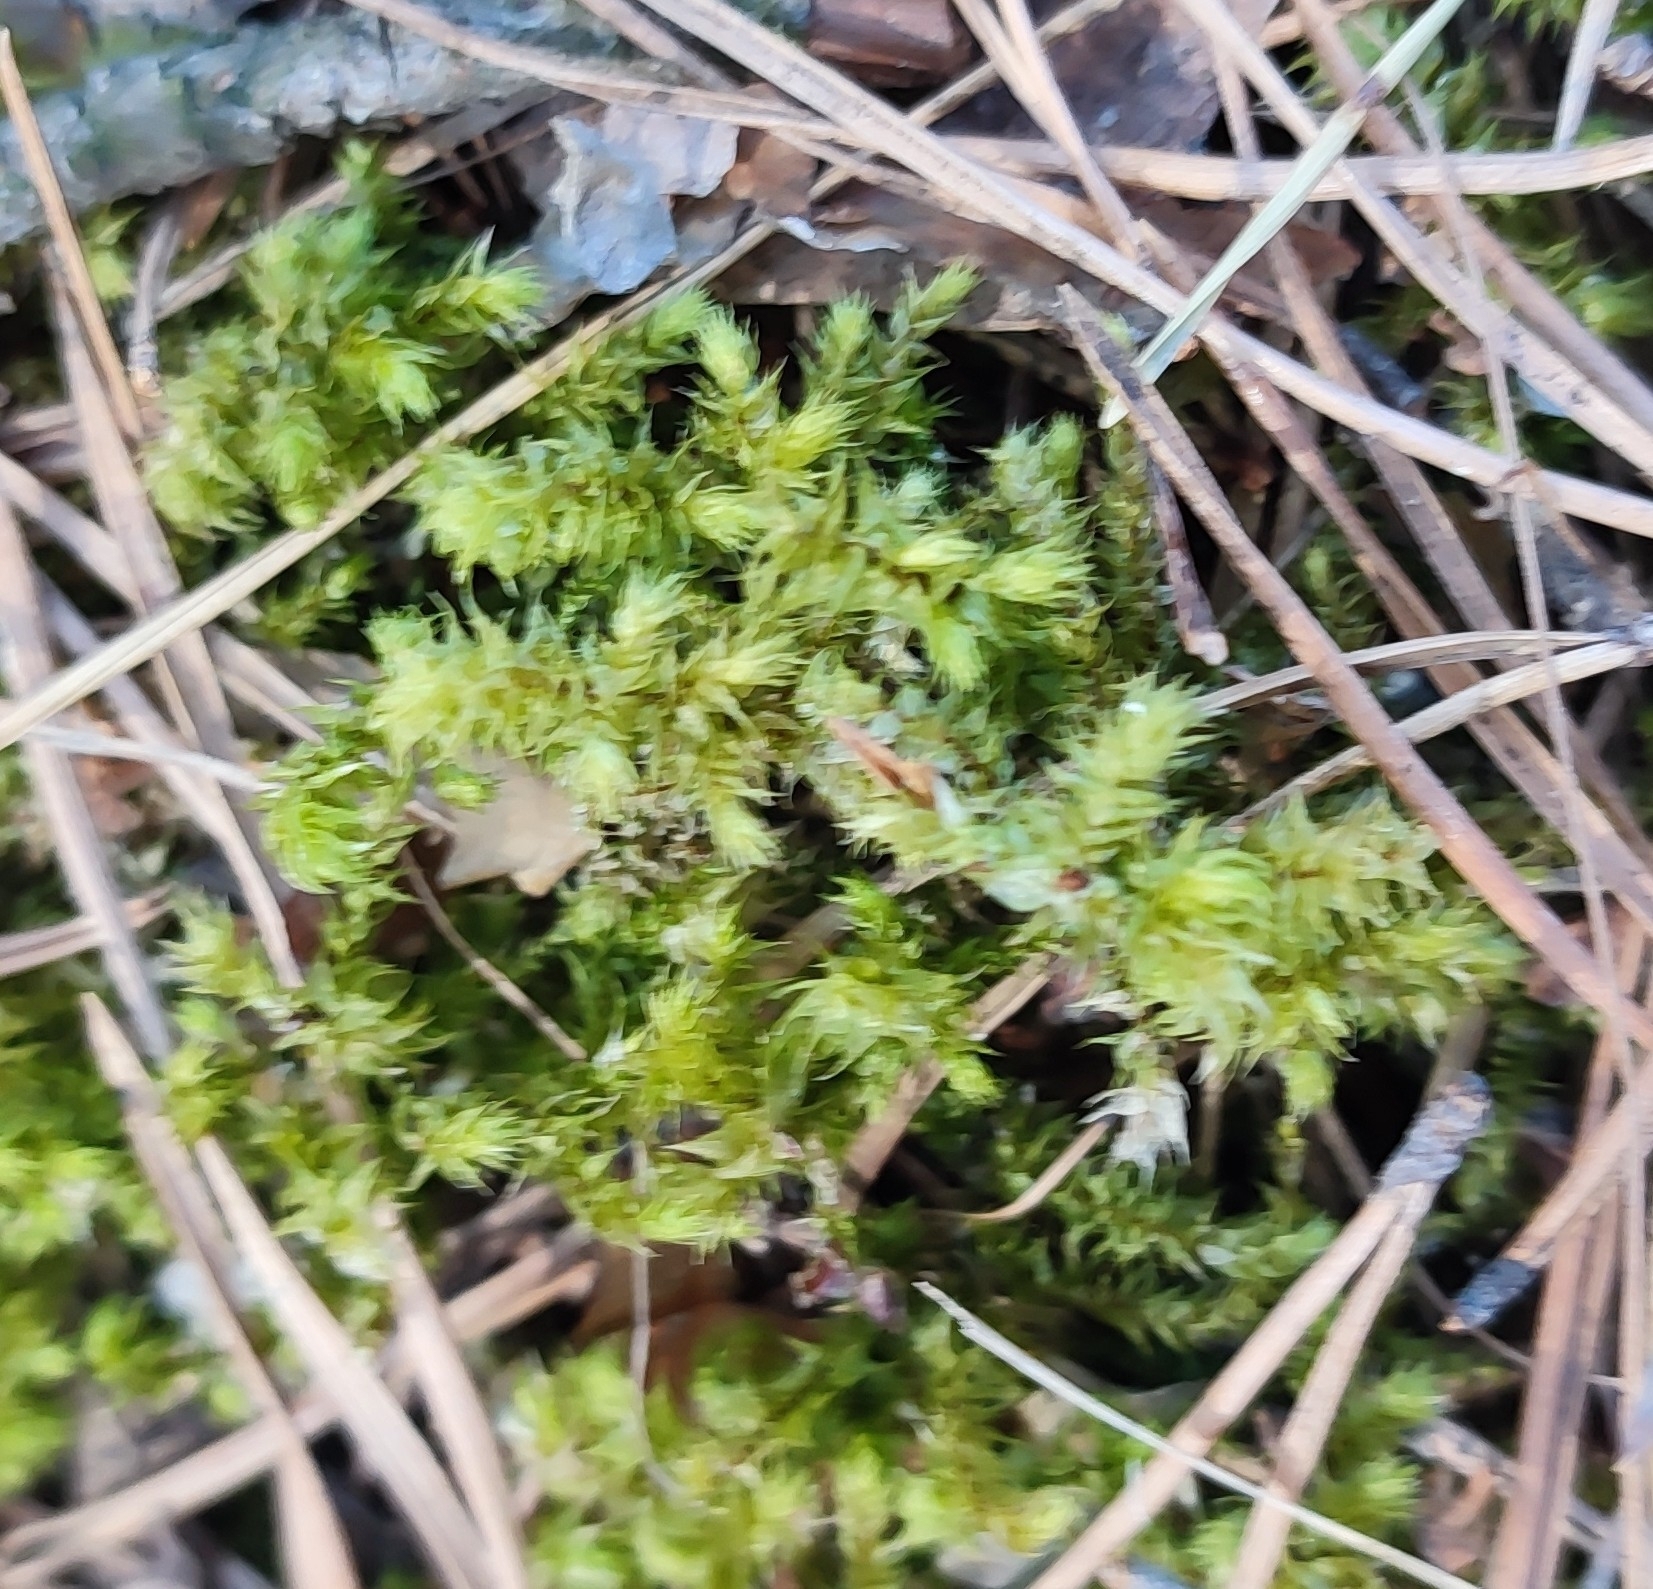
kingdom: Plantae
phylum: Bryophyta
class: Bryopsida
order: Hypnales
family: Hylocomiaceae
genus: Hylocomiadelphus
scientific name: Hylocomiadelphus triquetrus
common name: Rough goose neck moss
